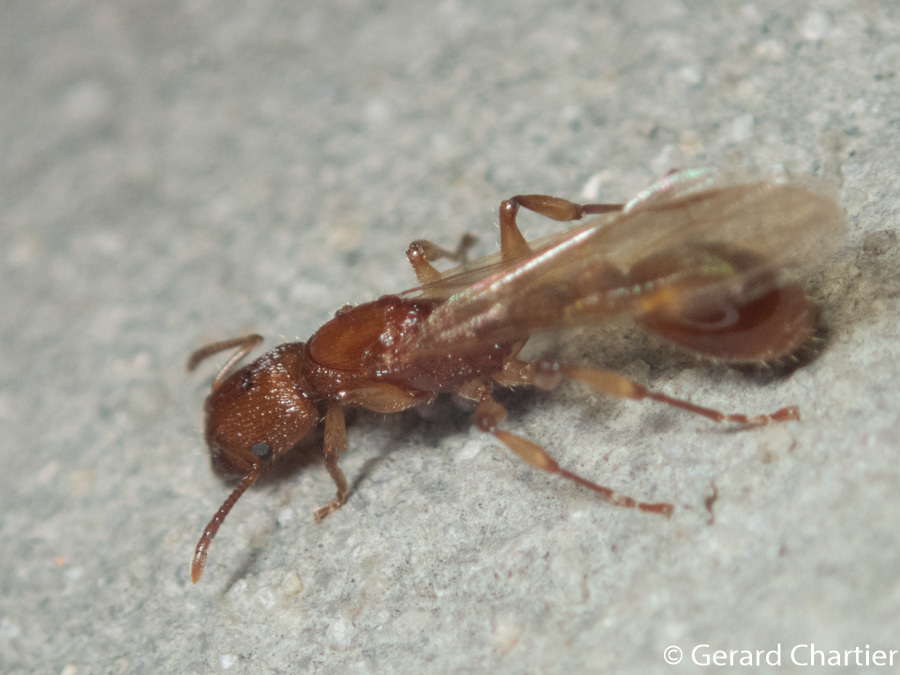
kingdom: Animalia
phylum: Arthropoda
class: Insecta
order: Hymenoptera
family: Formicidae
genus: Paratopula
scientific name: Paratopula macta
